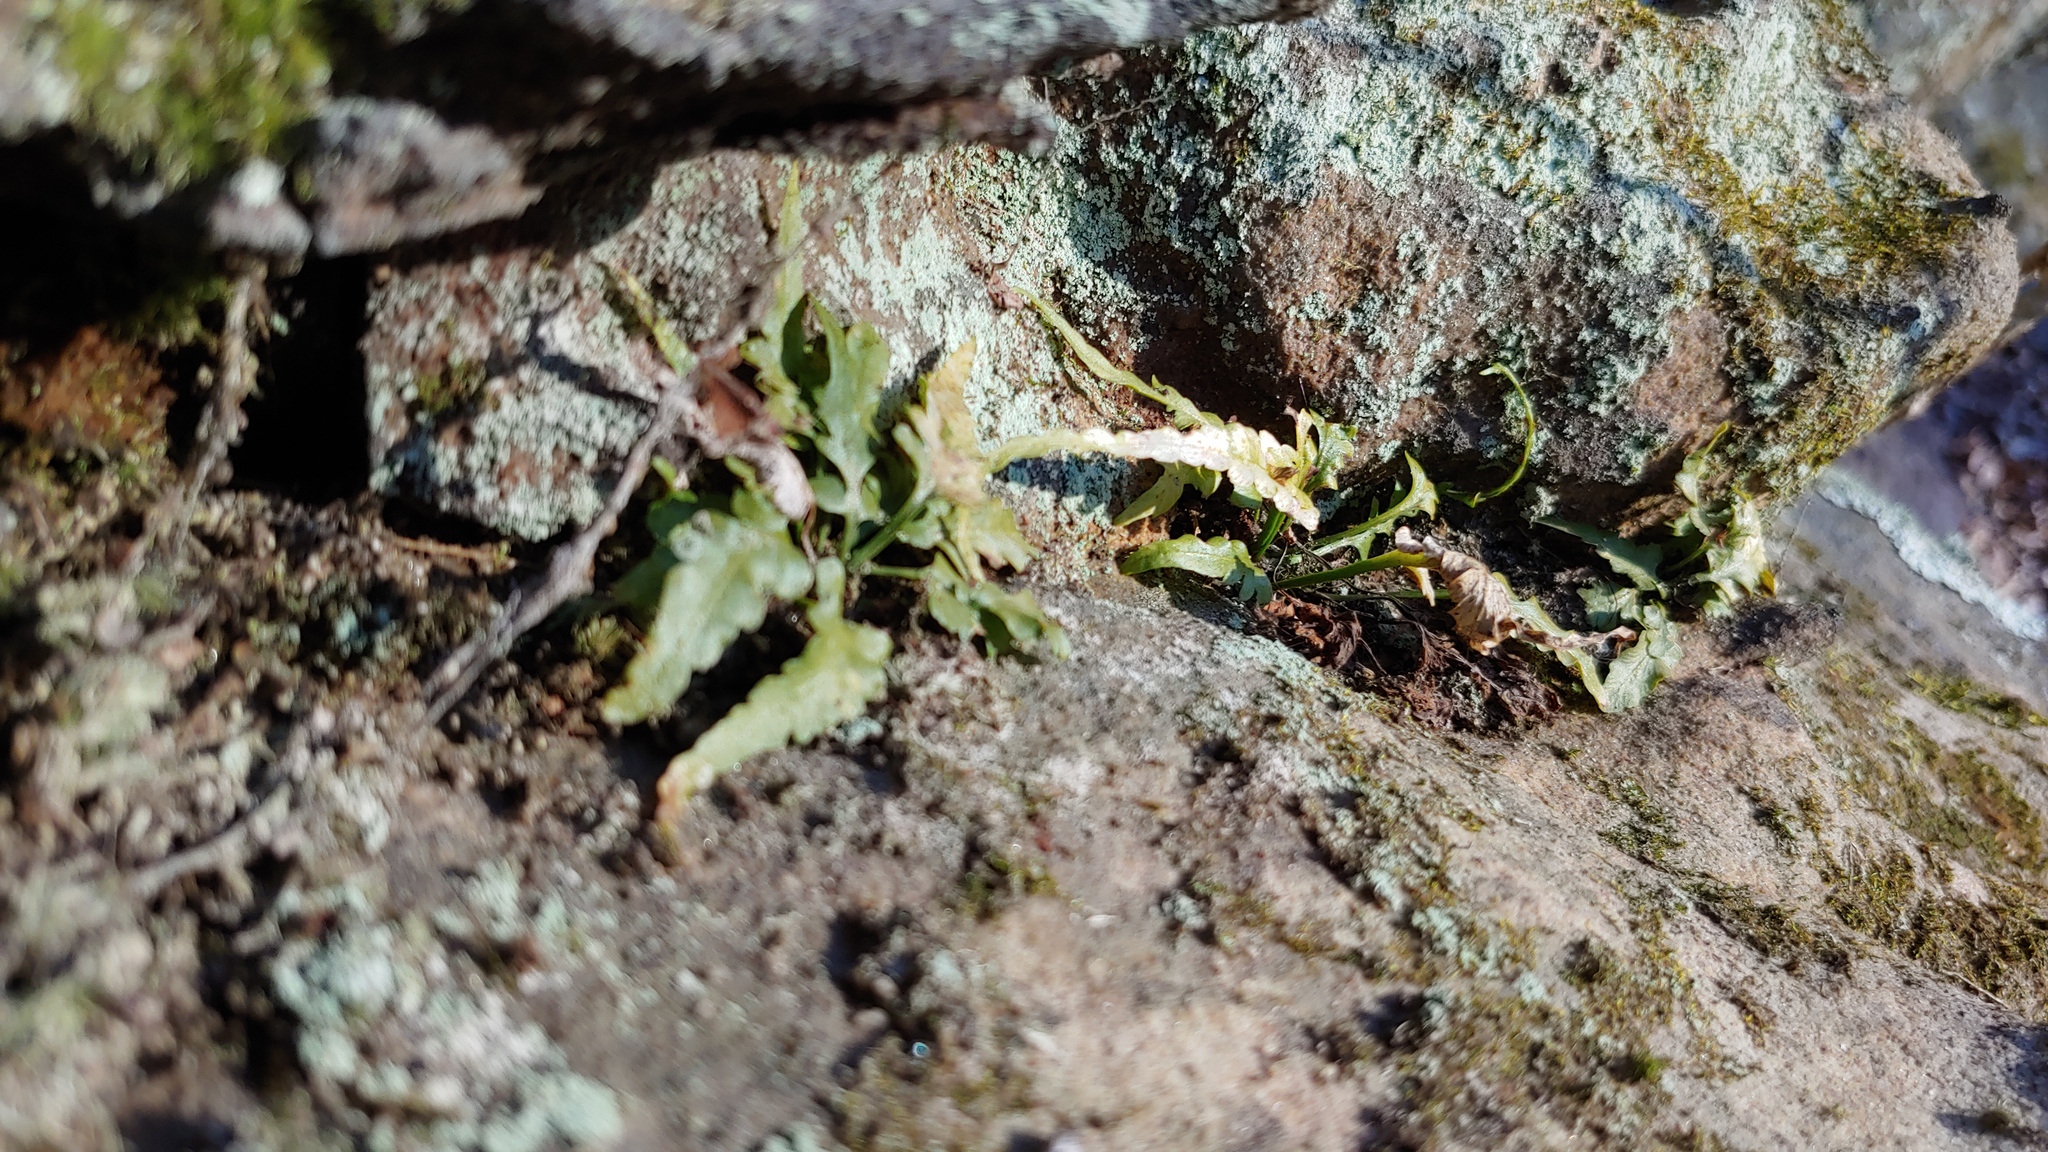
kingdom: Plantae
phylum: Tracheophyta
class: Polypodiopsida
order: Polypodiales
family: Aspleniaceae
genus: Asplenium
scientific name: Asplenium pinnatifidum
